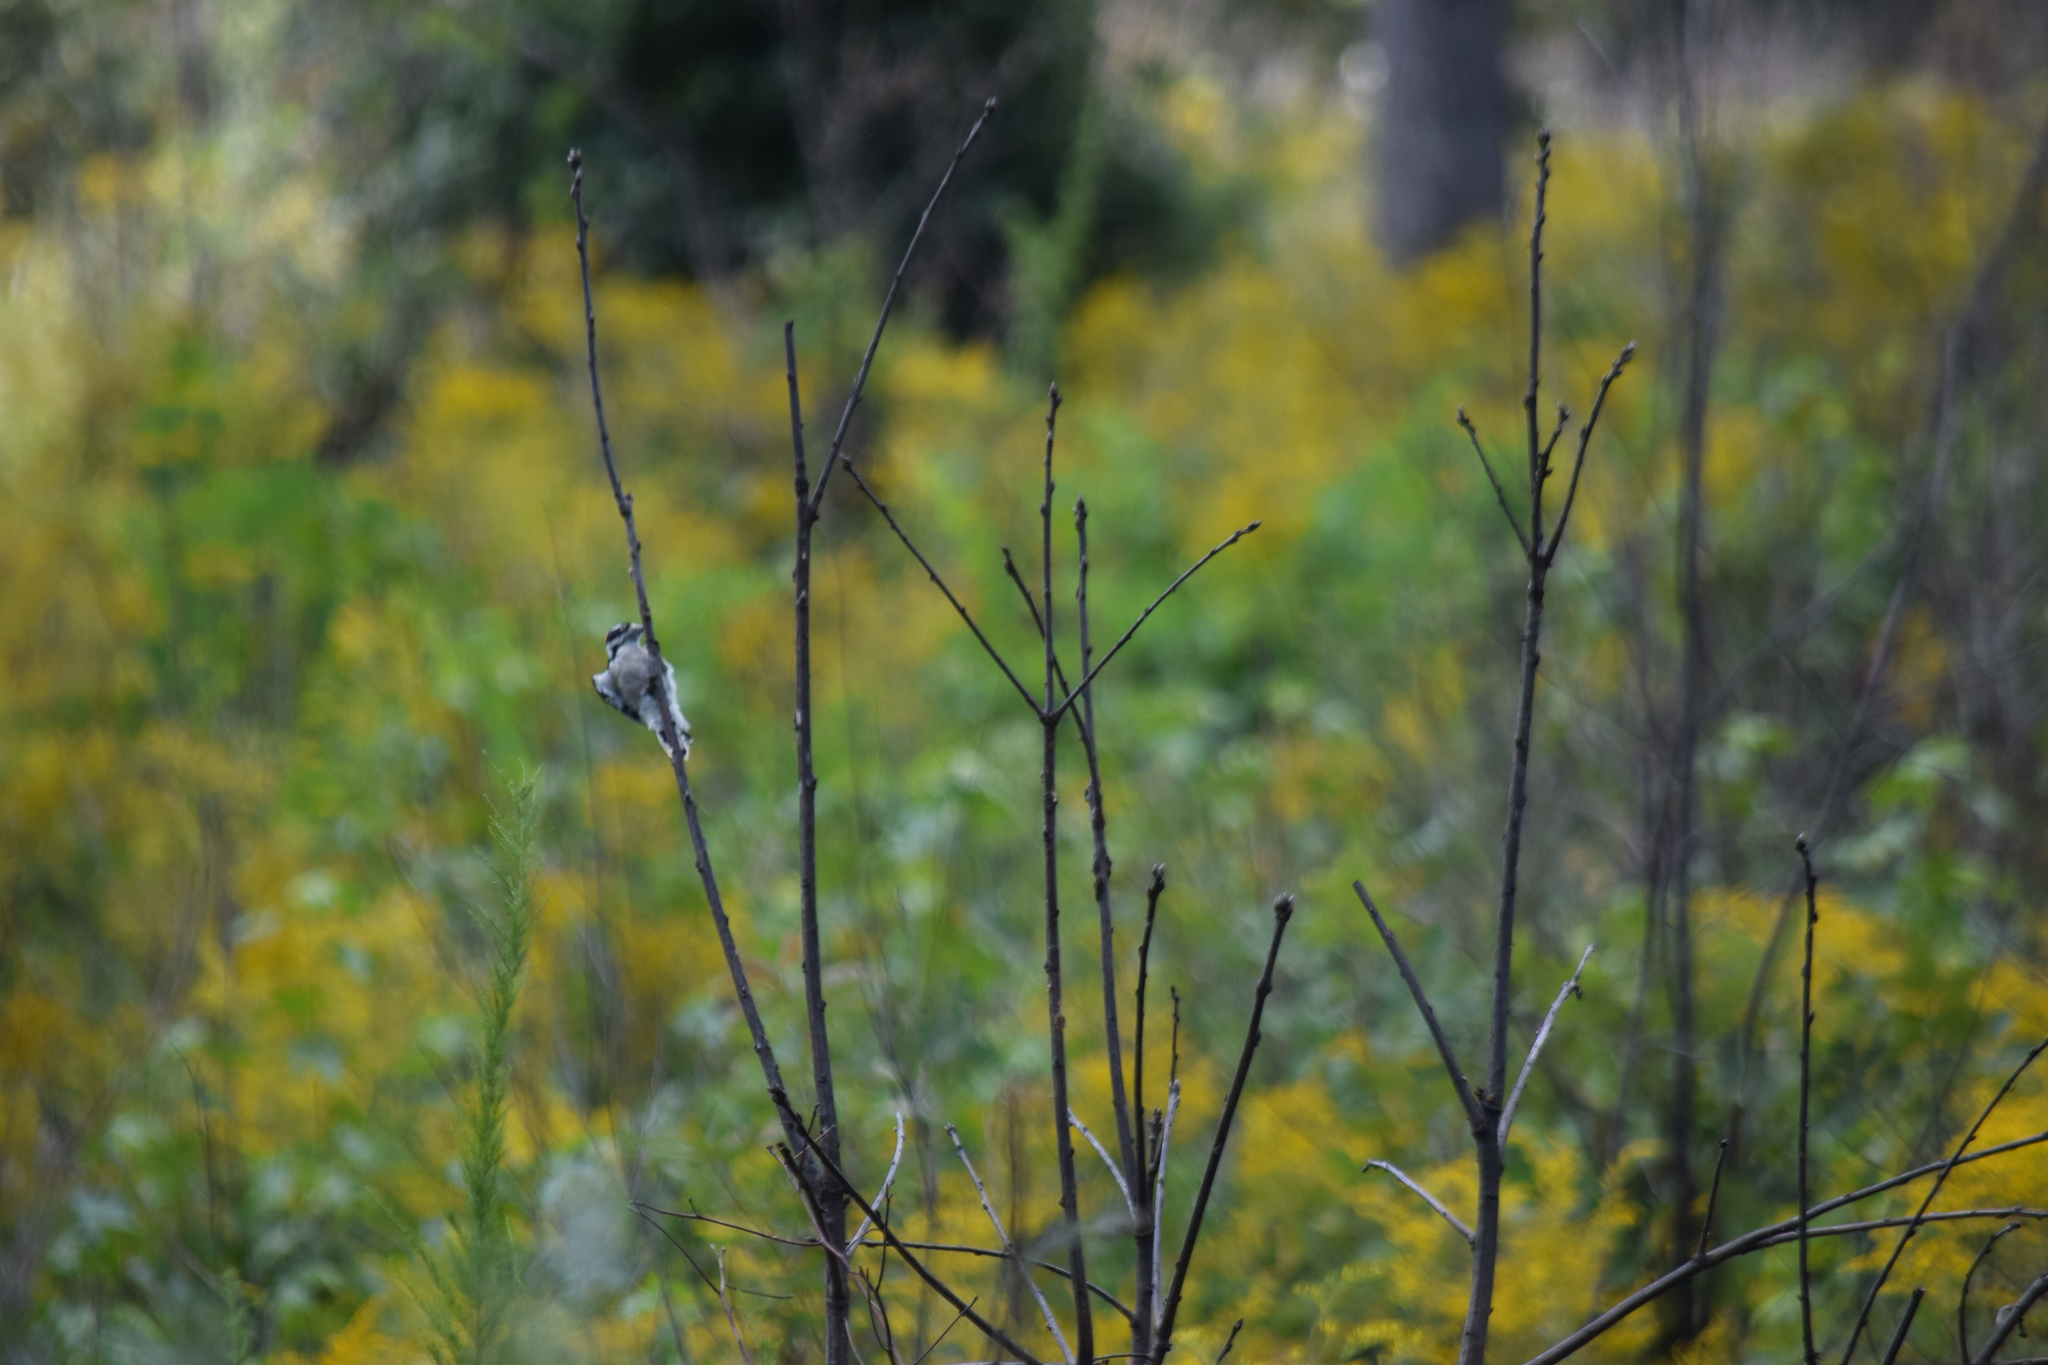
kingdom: Animalia
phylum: Chordata
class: Aves
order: Piciformes
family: Picidae
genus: Dryobates
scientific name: Dryobates pubescens
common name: Downy woodpecker
